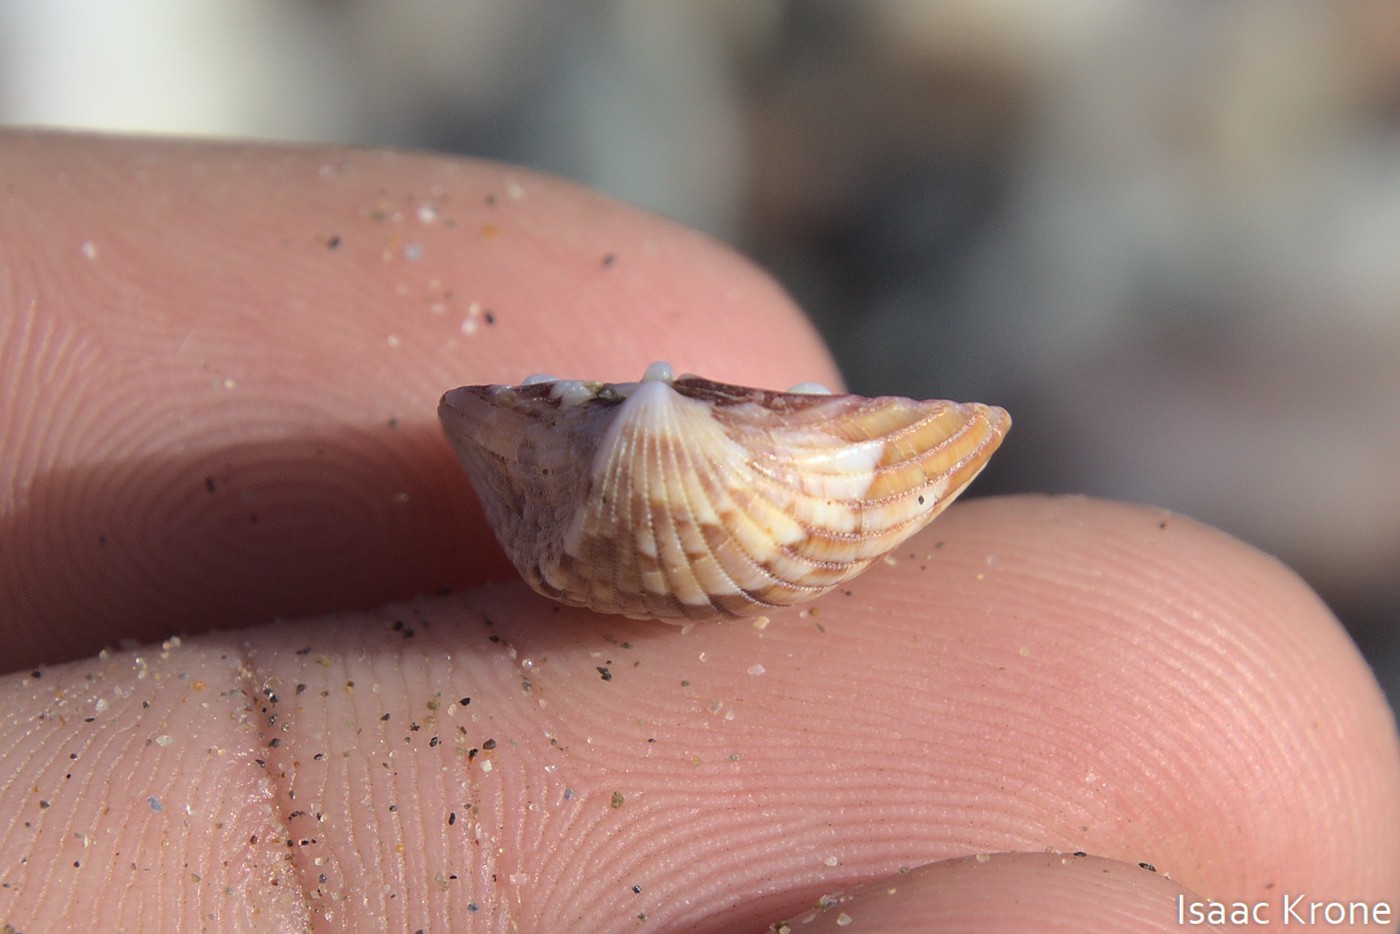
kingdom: Animalia
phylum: Mollusca
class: Bivalvia
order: Cardiida
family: Cardiidae
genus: Americardia
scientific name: Americardia biangulata
